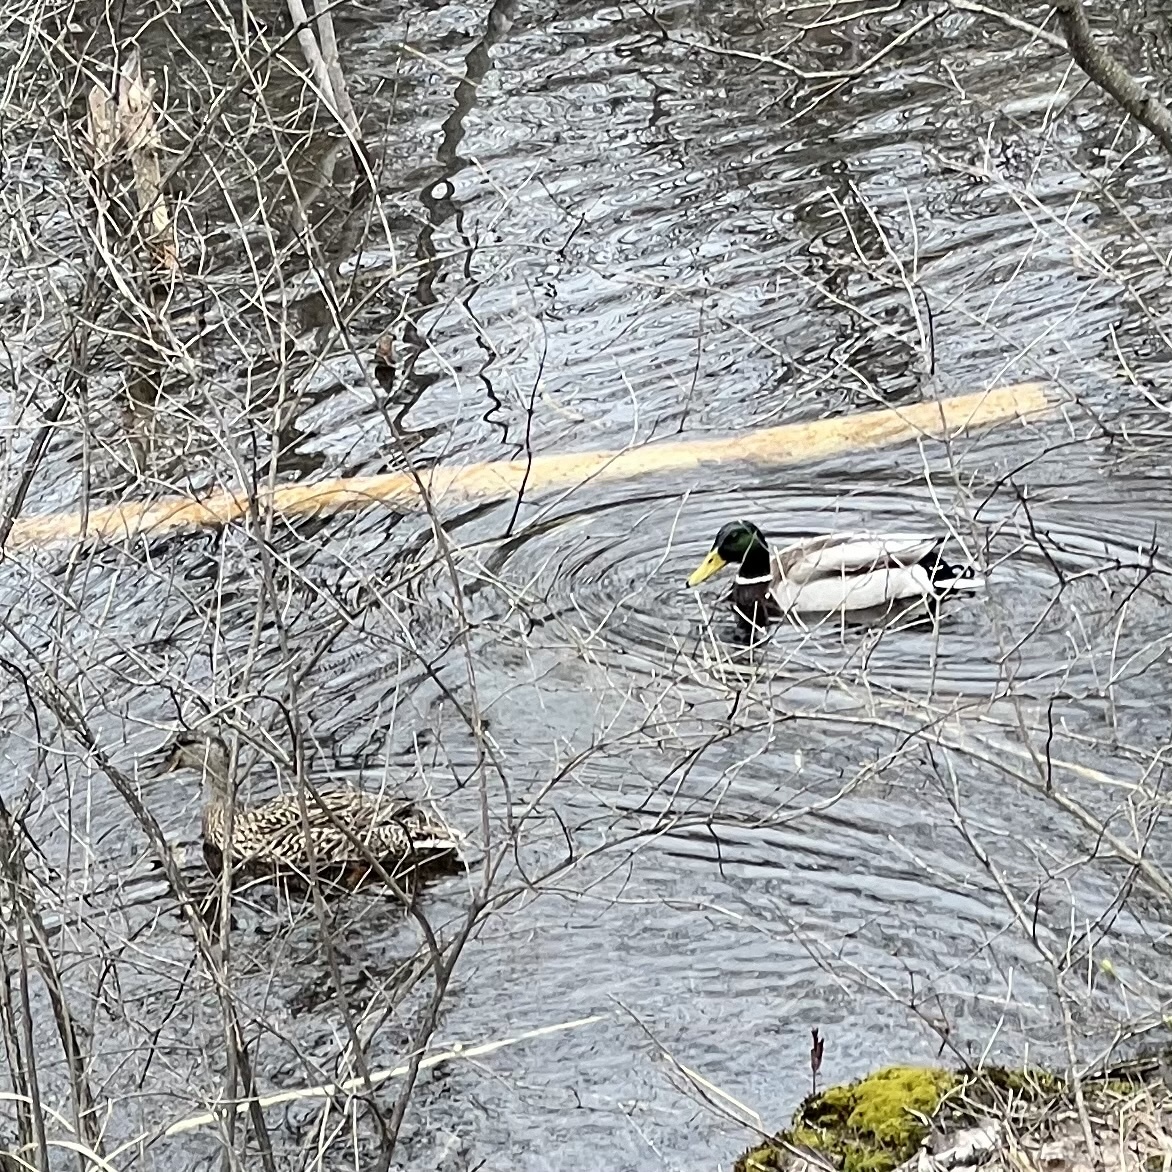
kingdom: Animalia
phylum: Chordata
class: Aves
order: Anseriformes
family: Anatidae
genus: Anas
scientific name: Anas platyrhynchos
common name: Mallard
